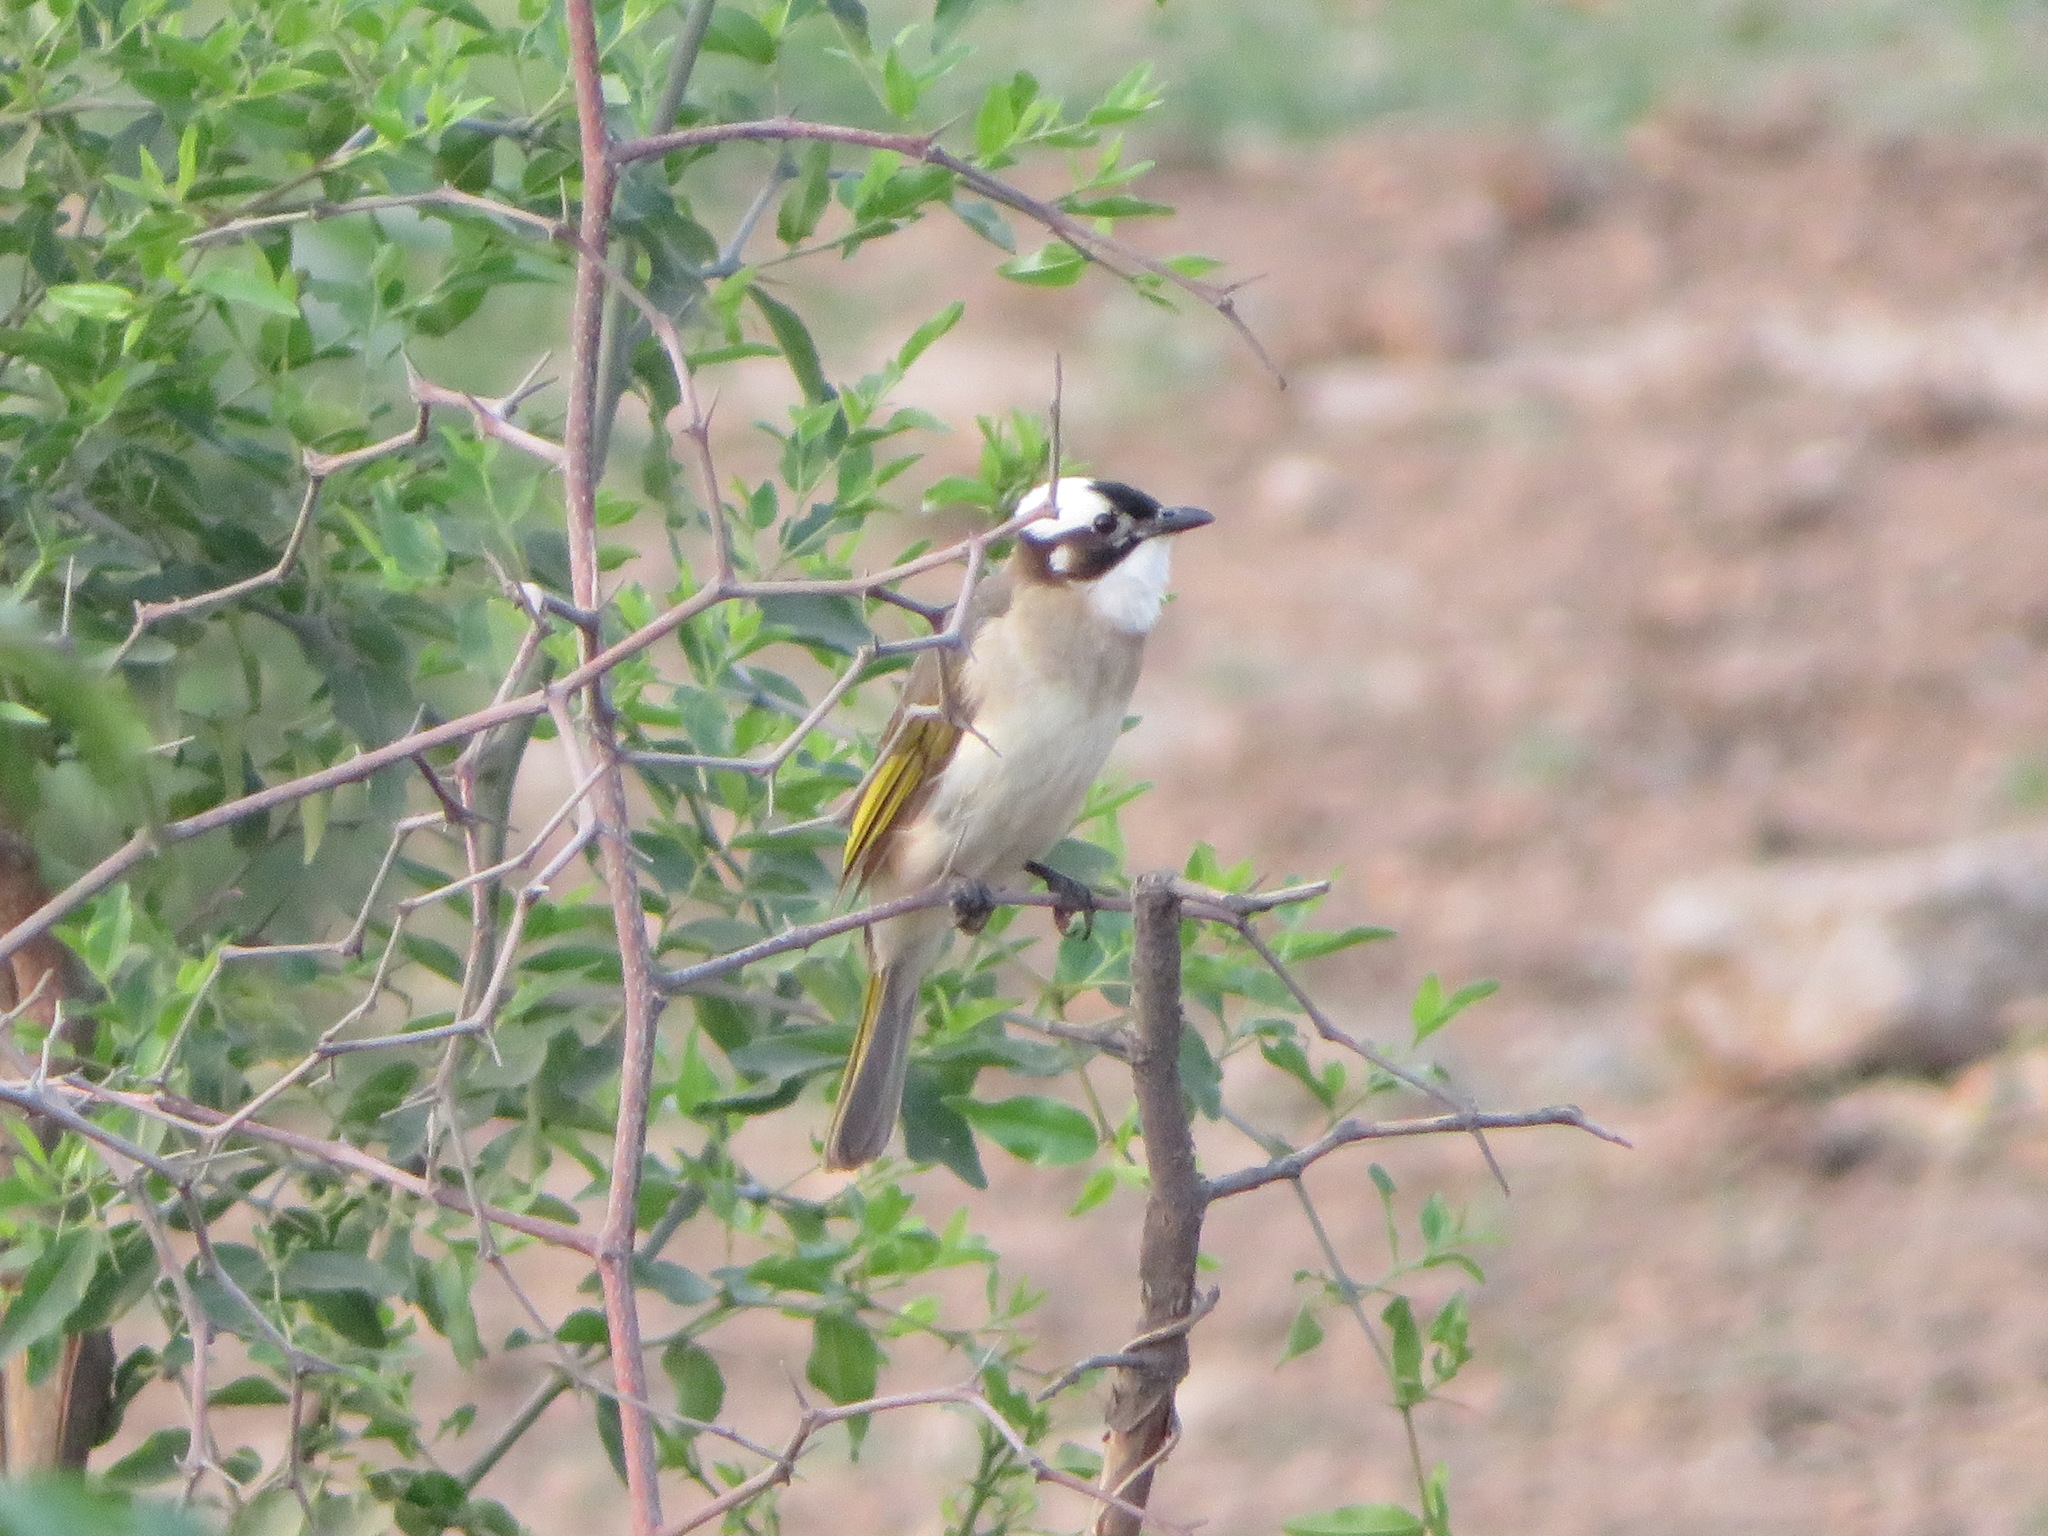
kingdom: Animalia
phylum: Chordata
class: Aves
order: Passeriformes
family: Pycnonotidae
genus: Pycnonotus
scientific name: Pycnonotus sinensis
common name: Light-vented bulbul
